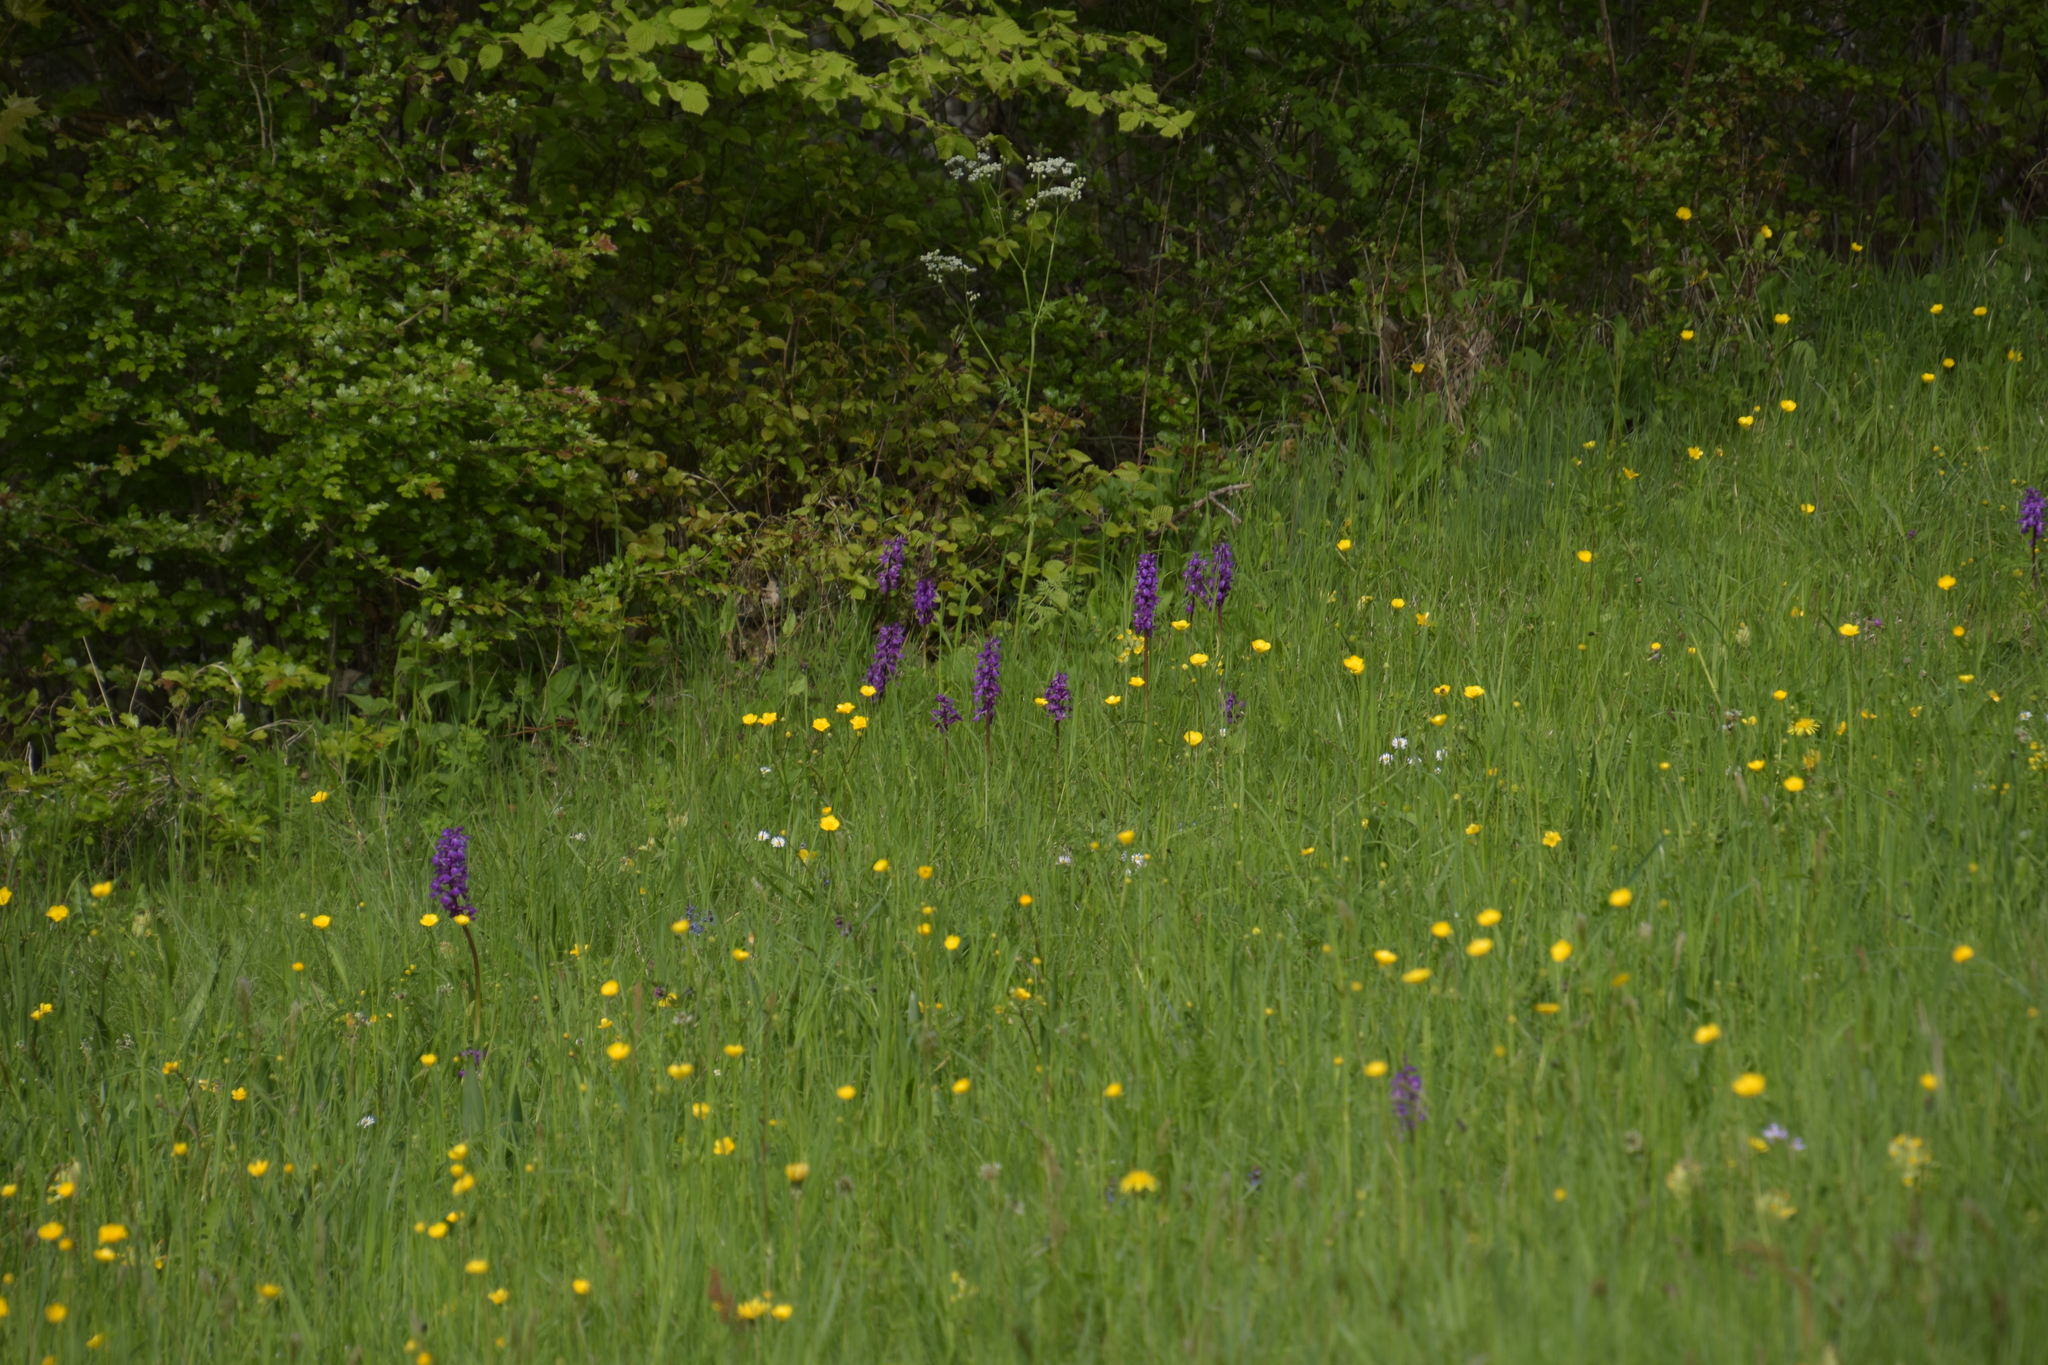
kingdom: Plantae
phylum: Tracheophyta
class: Liliopsida
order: Asparagales
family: Orchidaceae
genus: Orchis
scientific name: Orchis mascula
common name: Early-purple orchid
